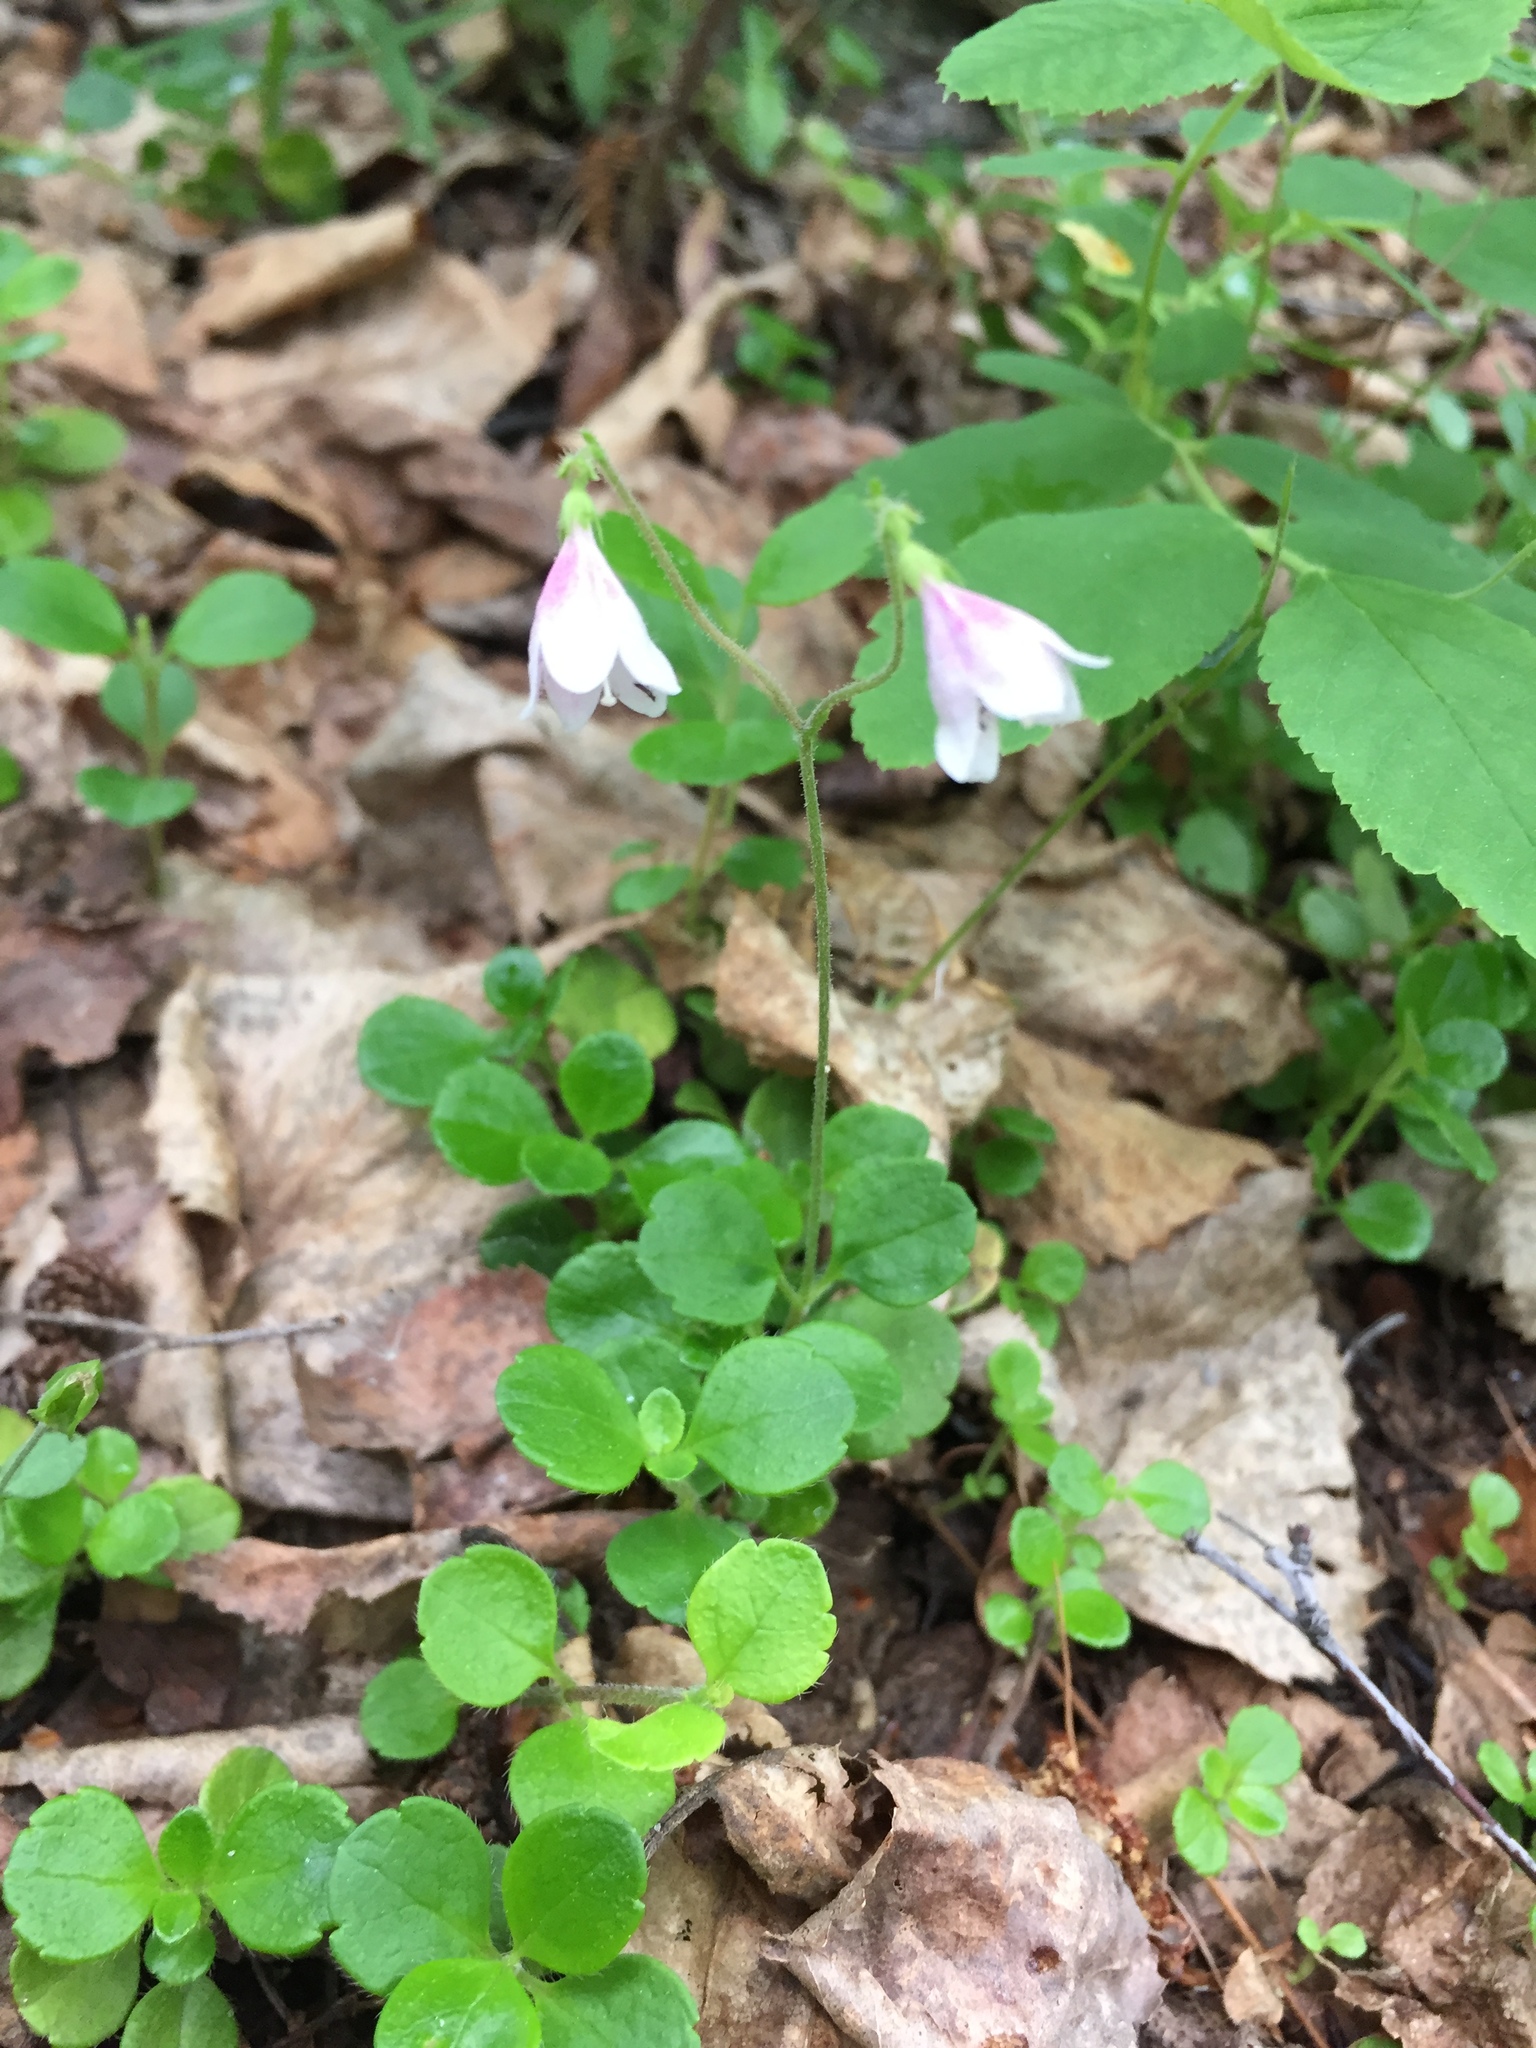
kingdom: Plantae
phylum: Tracheophyta
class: Magnoliopsida
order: Dipsacales
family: Caprifoliaceae
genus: Linnaea
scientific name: Linnaea borealis
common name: Twinflower
